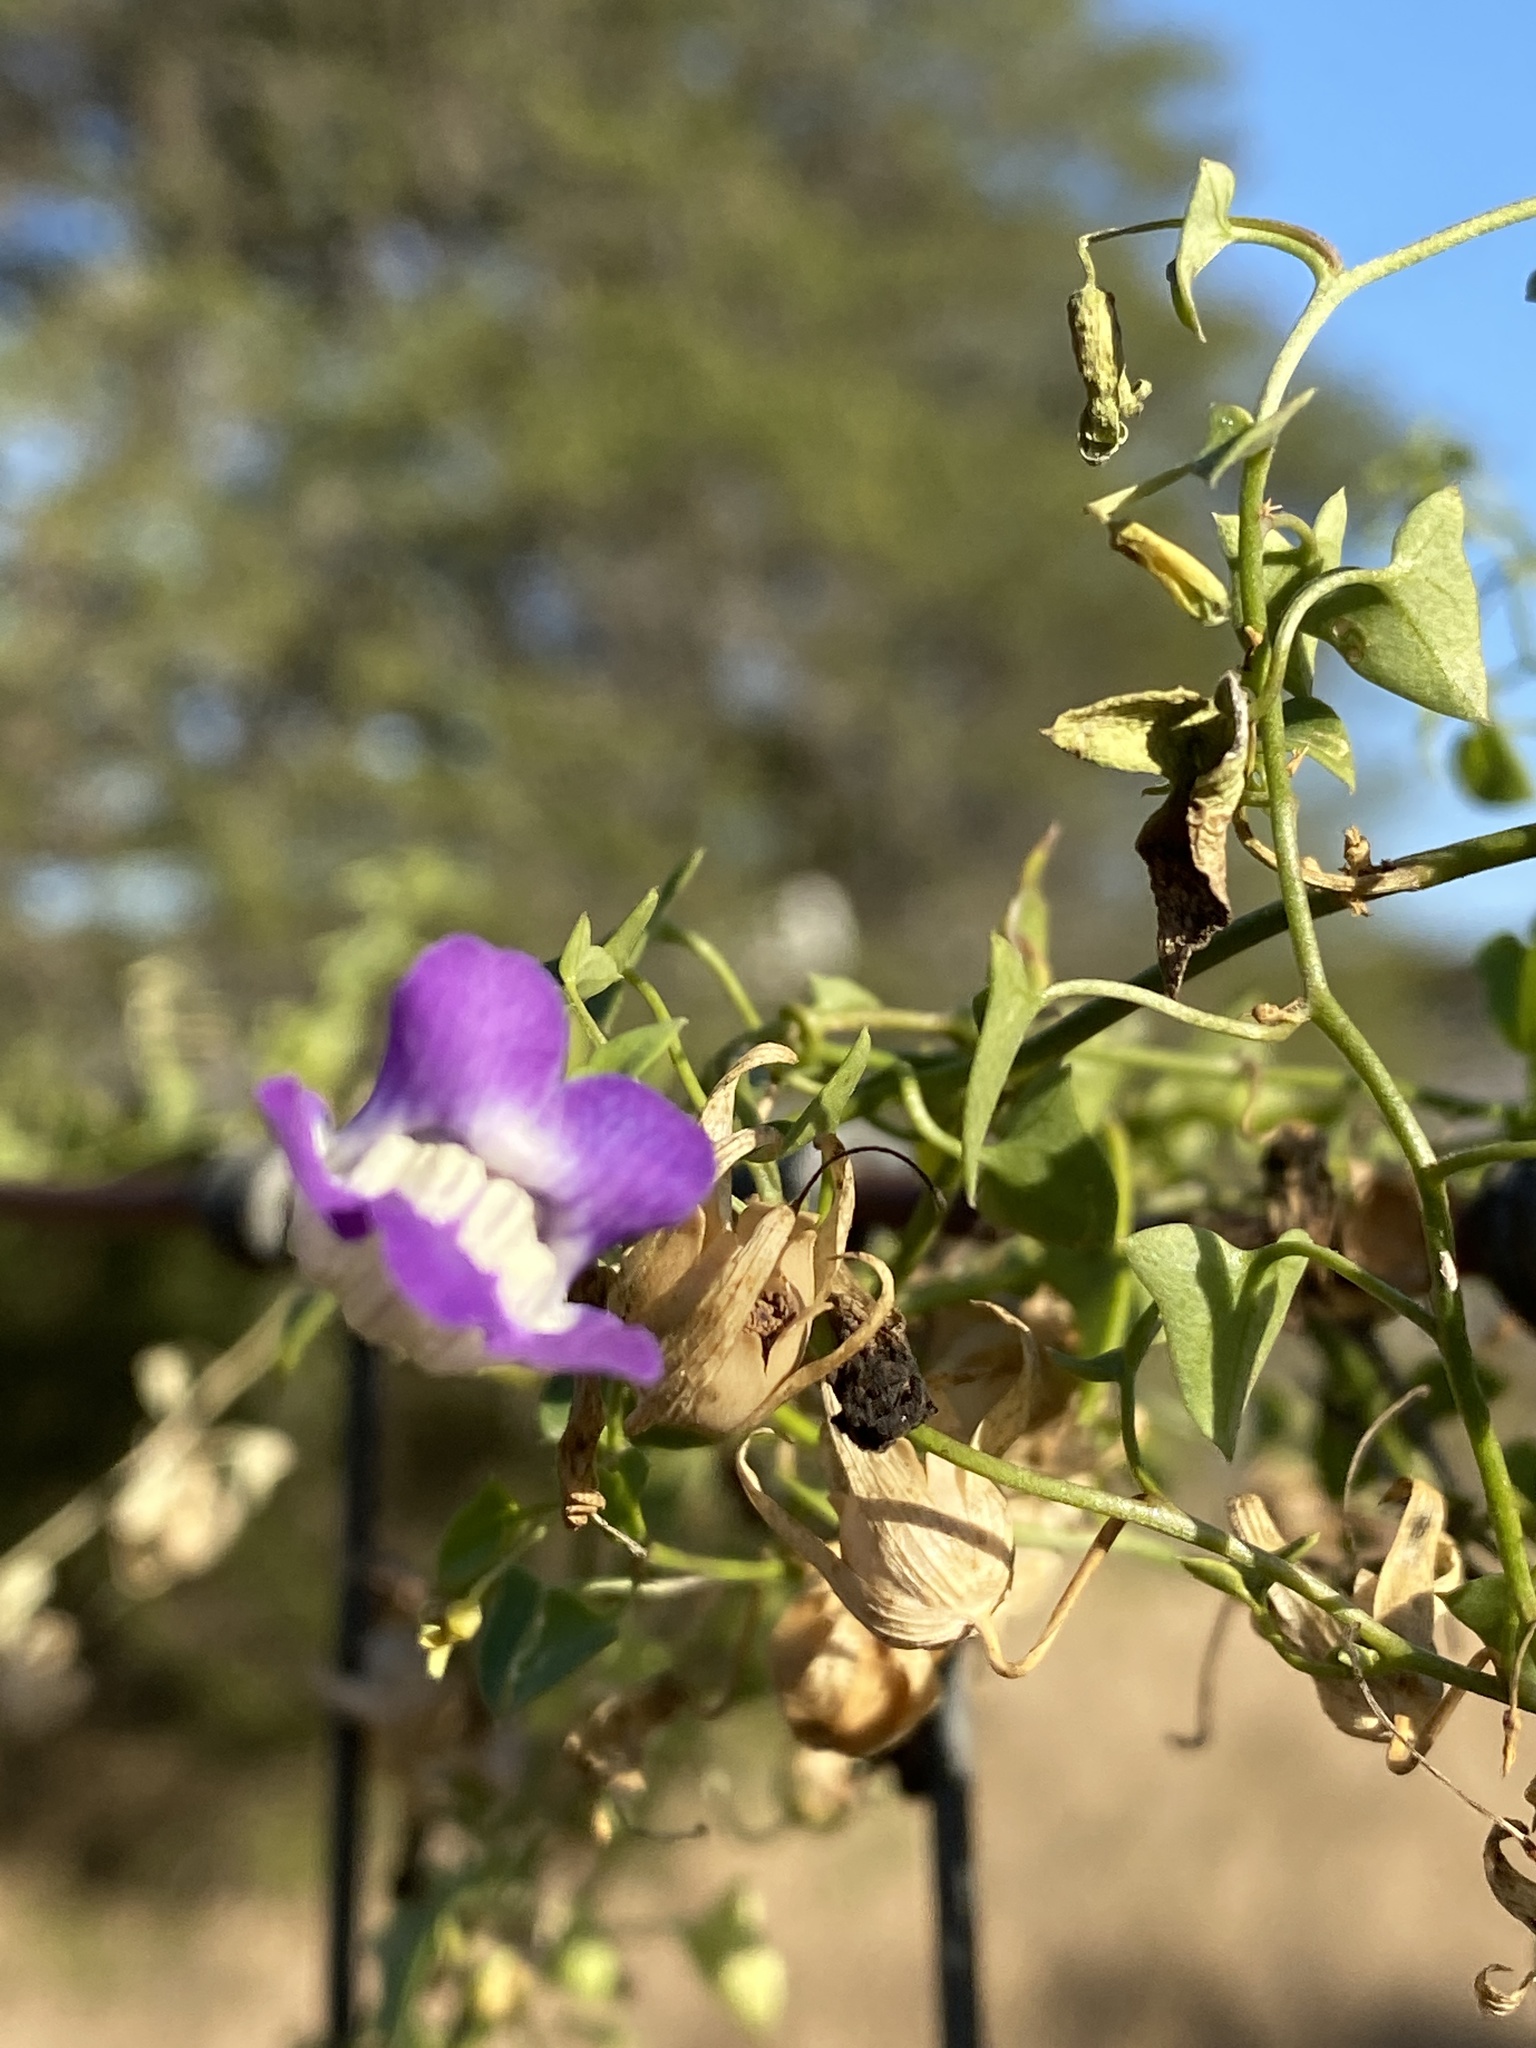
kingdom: Plantae
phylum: Tracheophyta
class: Magnoliopsida
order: Lamiales
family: Plantaginaceae
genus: Maurandella
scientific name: Maurandella antirrhiniflora
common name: Violet twining-snapdragon
